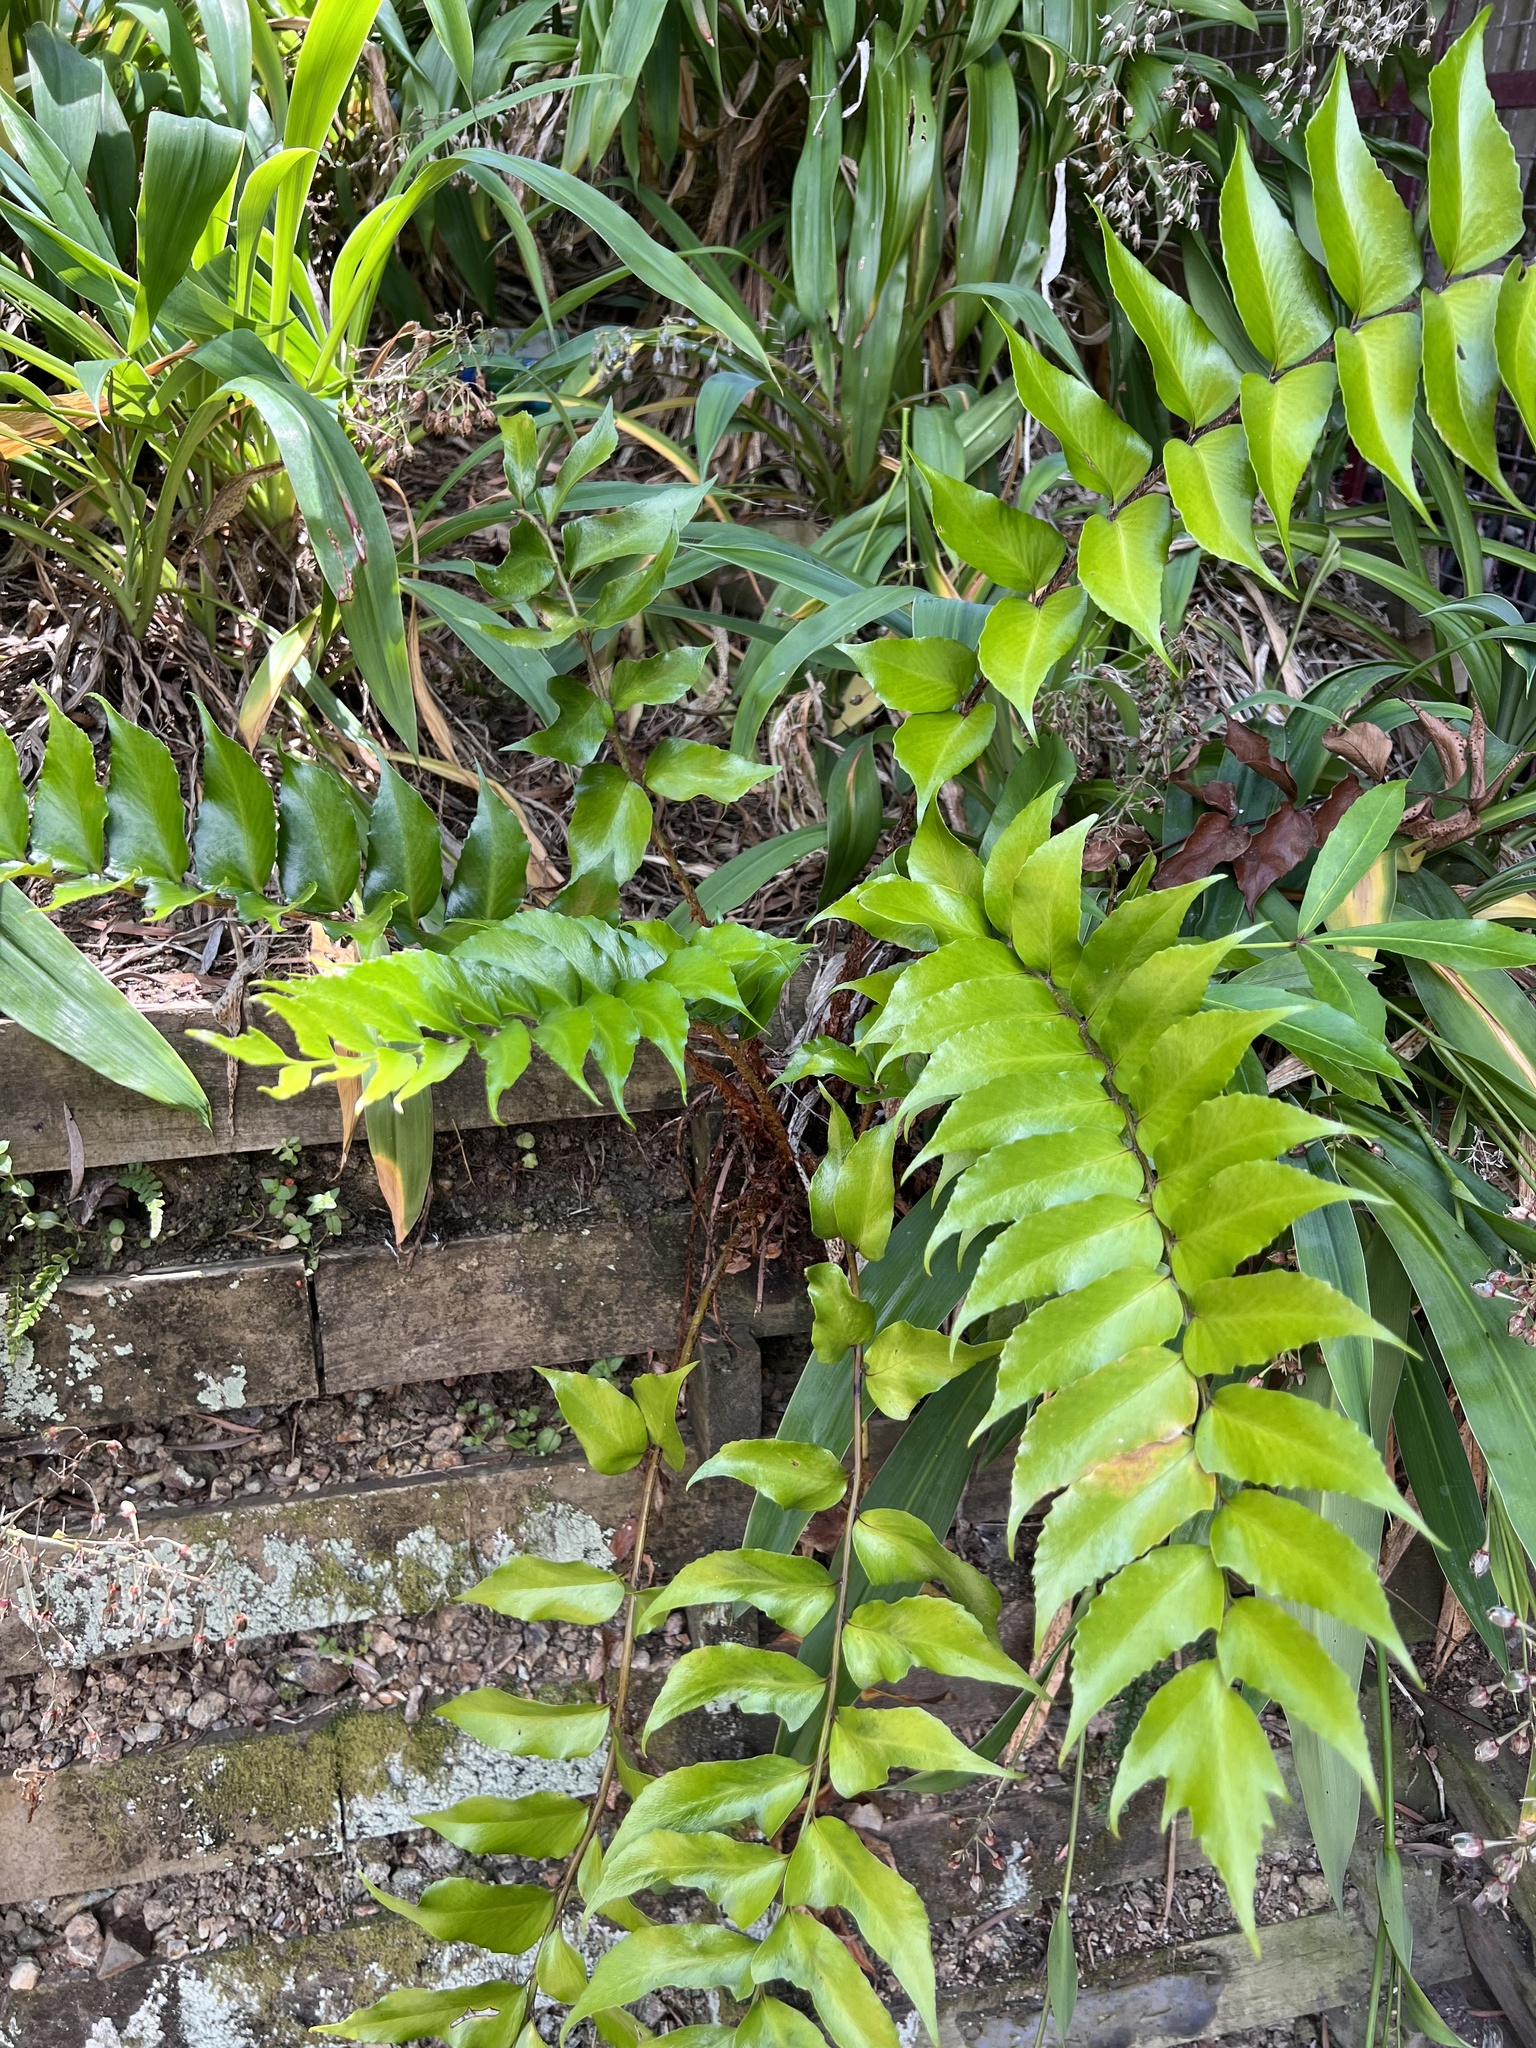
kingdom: Plantae
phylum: Tracheophyta
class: Polypodiopsida
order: Polypodiales
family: Dryopteridaceae
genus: Cyrtomium
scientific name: Cyrtomium falcatum
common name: House holly-fern
